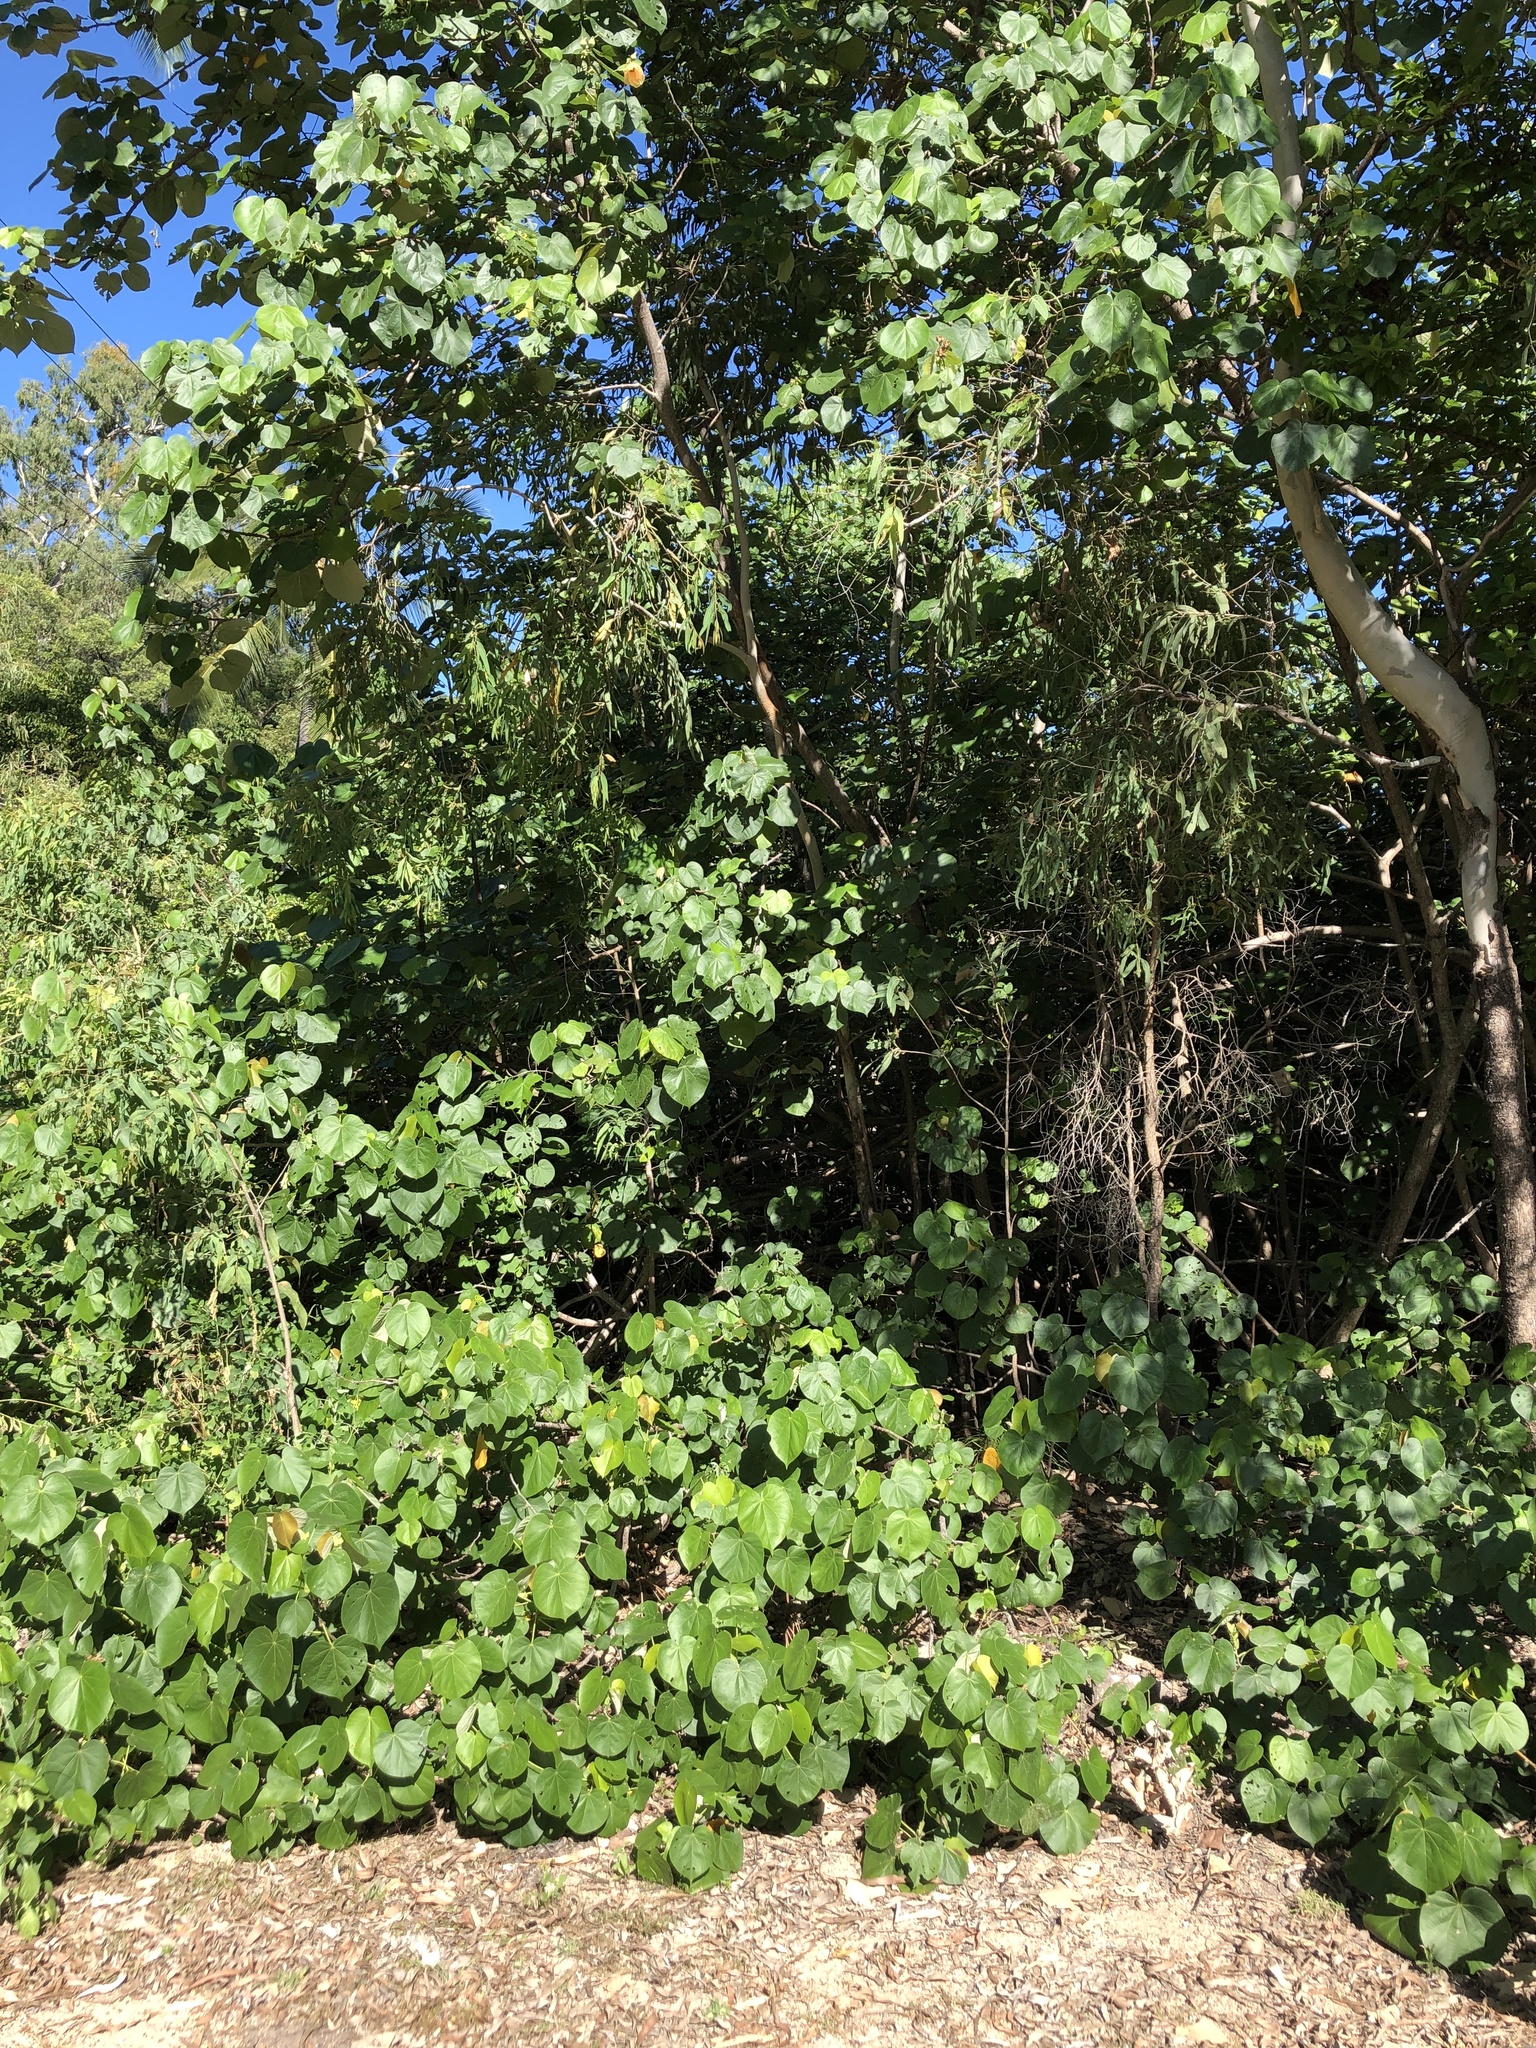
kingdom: Plantae
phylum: Tracheophyta
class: Magnoliopsida
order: Malvales
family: Malvaceae
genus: Talipariti
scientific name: Talipariti tiliaceum
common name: Sea hibiscus
